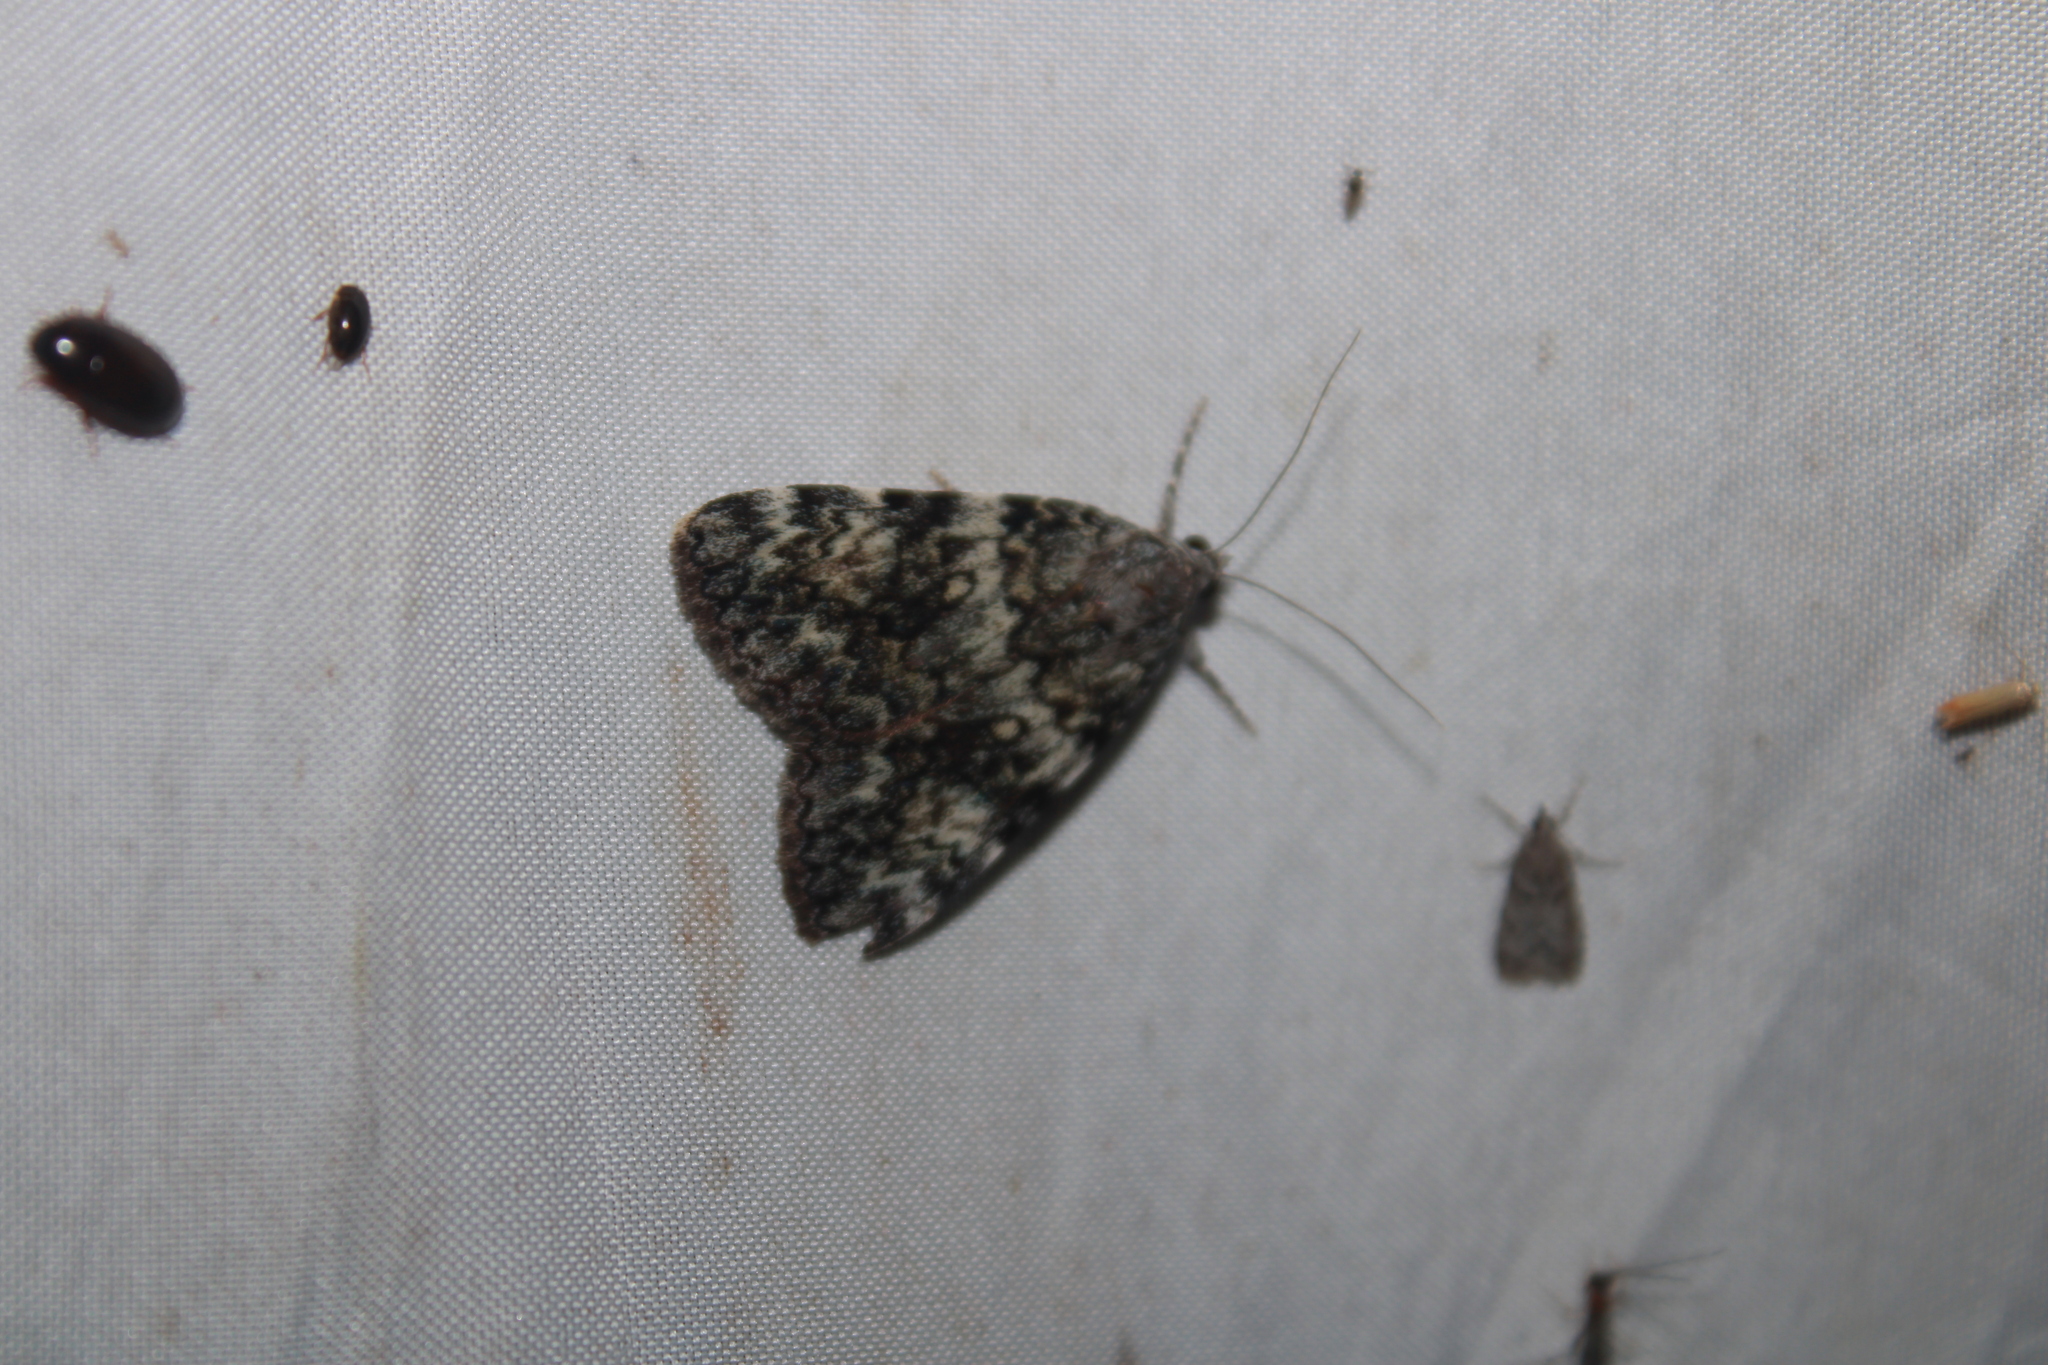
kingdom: Animalia
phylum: Arthropoda
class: Insecta
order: Lepidoptera
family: Erebidae
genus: Catocala
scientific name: Catocala lineella
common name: Little lined underwing
